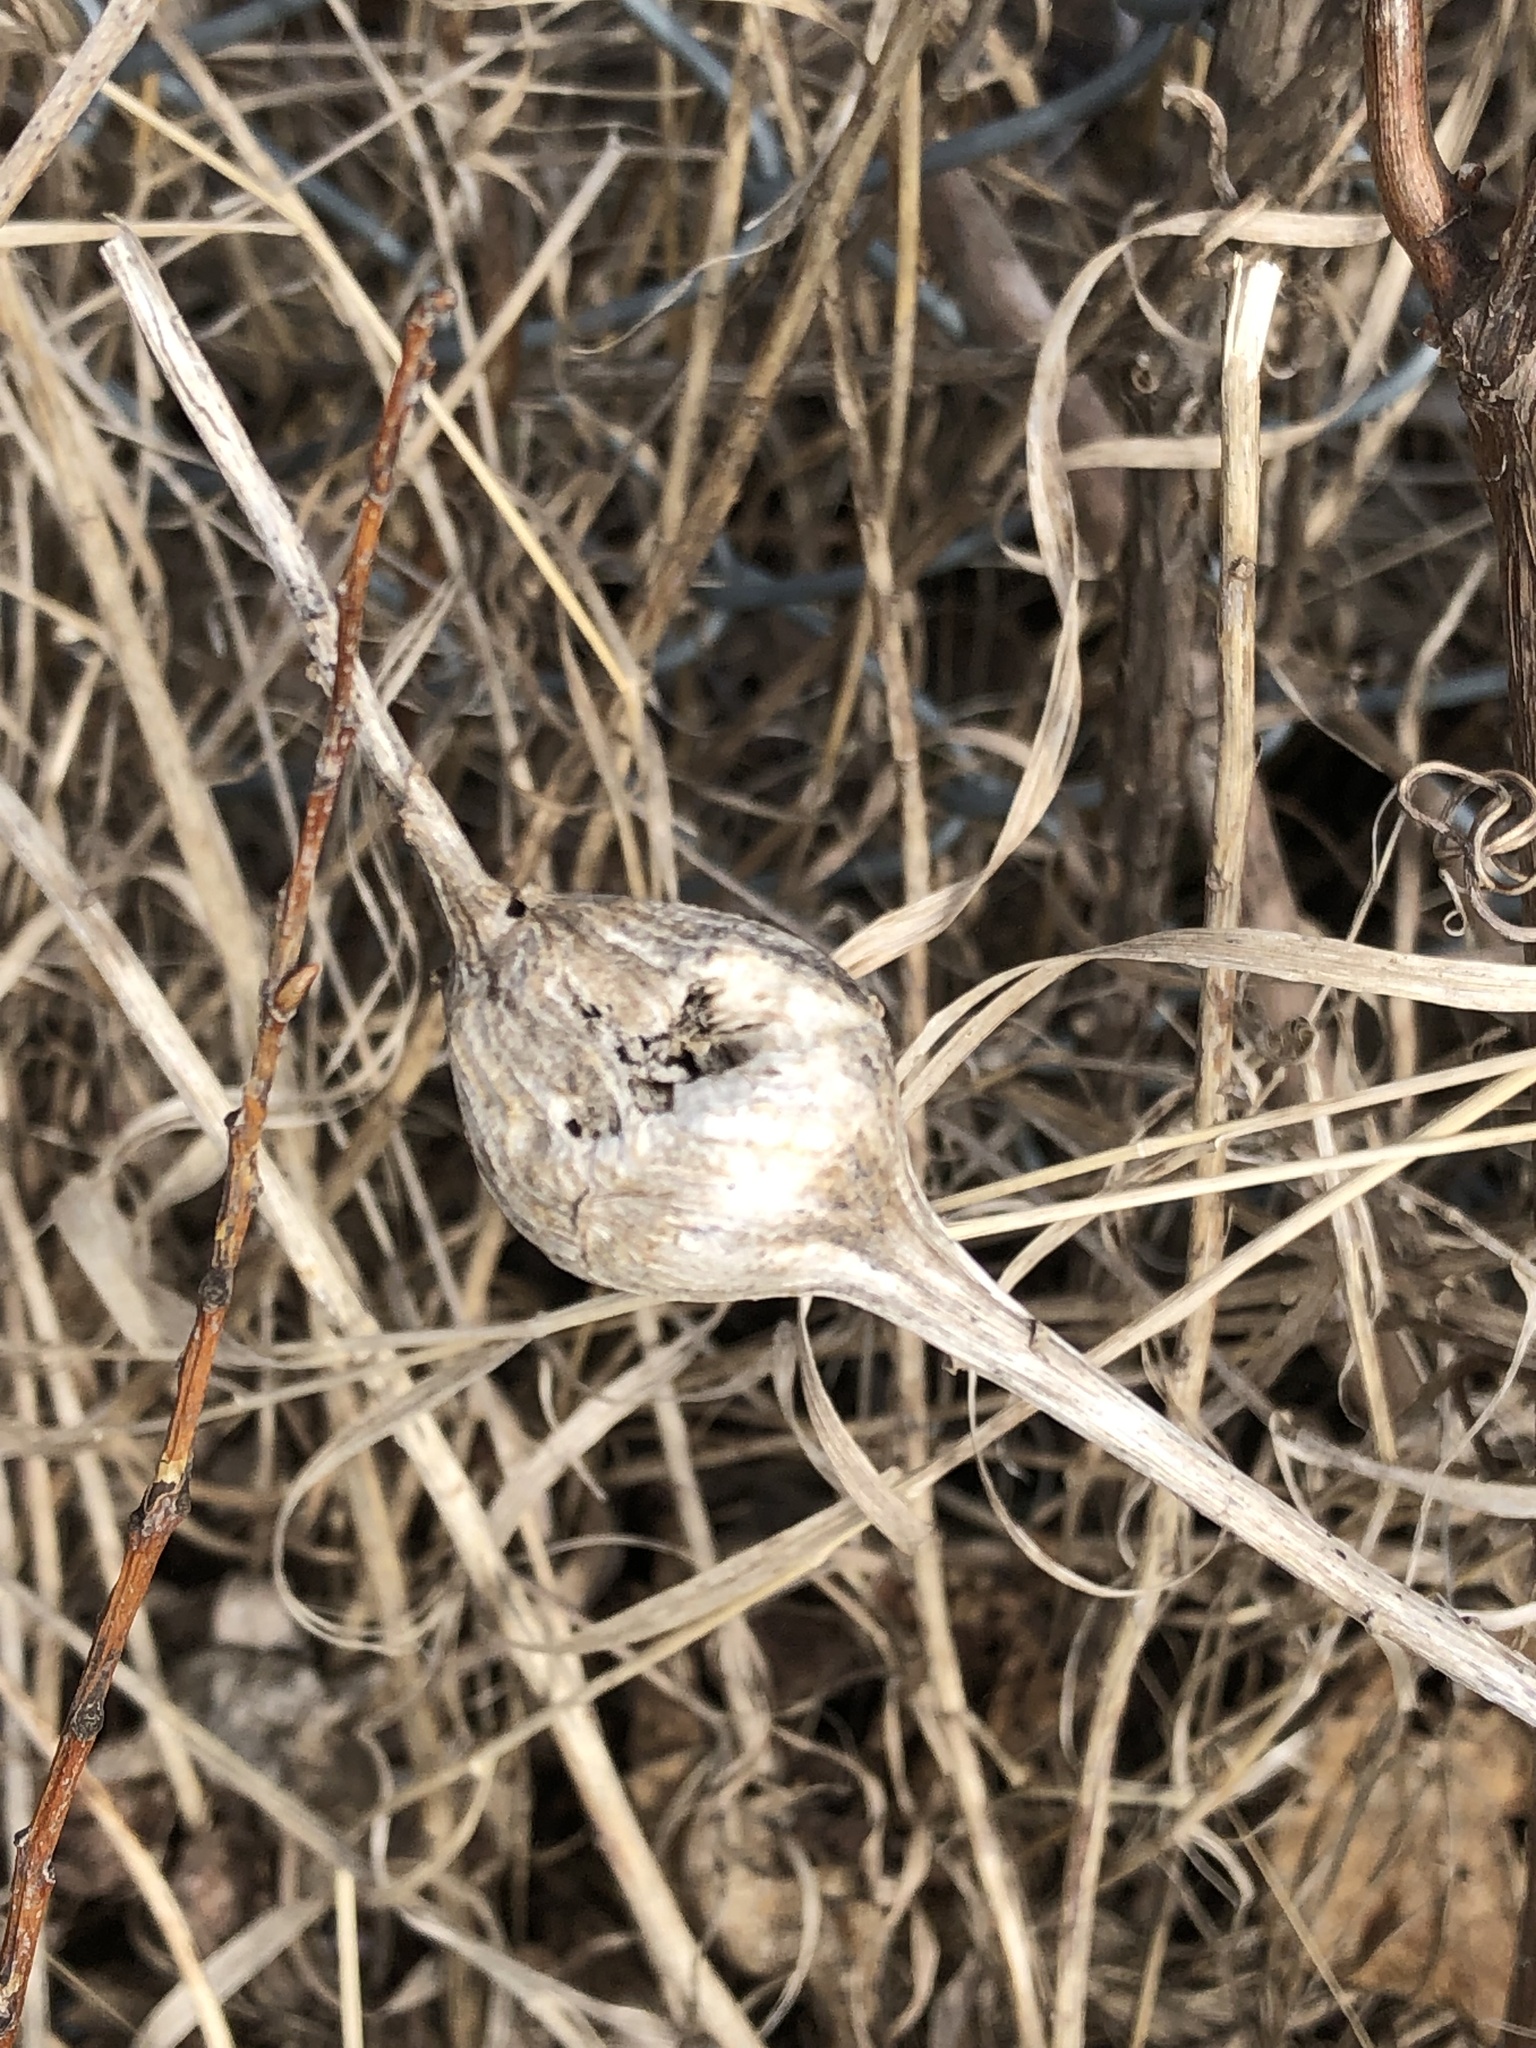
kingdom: Animalia
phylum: Arthropoda
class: Insecta
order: Diptera
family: Tephritidae
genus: Eurosta
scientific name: Eurosta solidaginis
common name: Goldenrod gall fly
